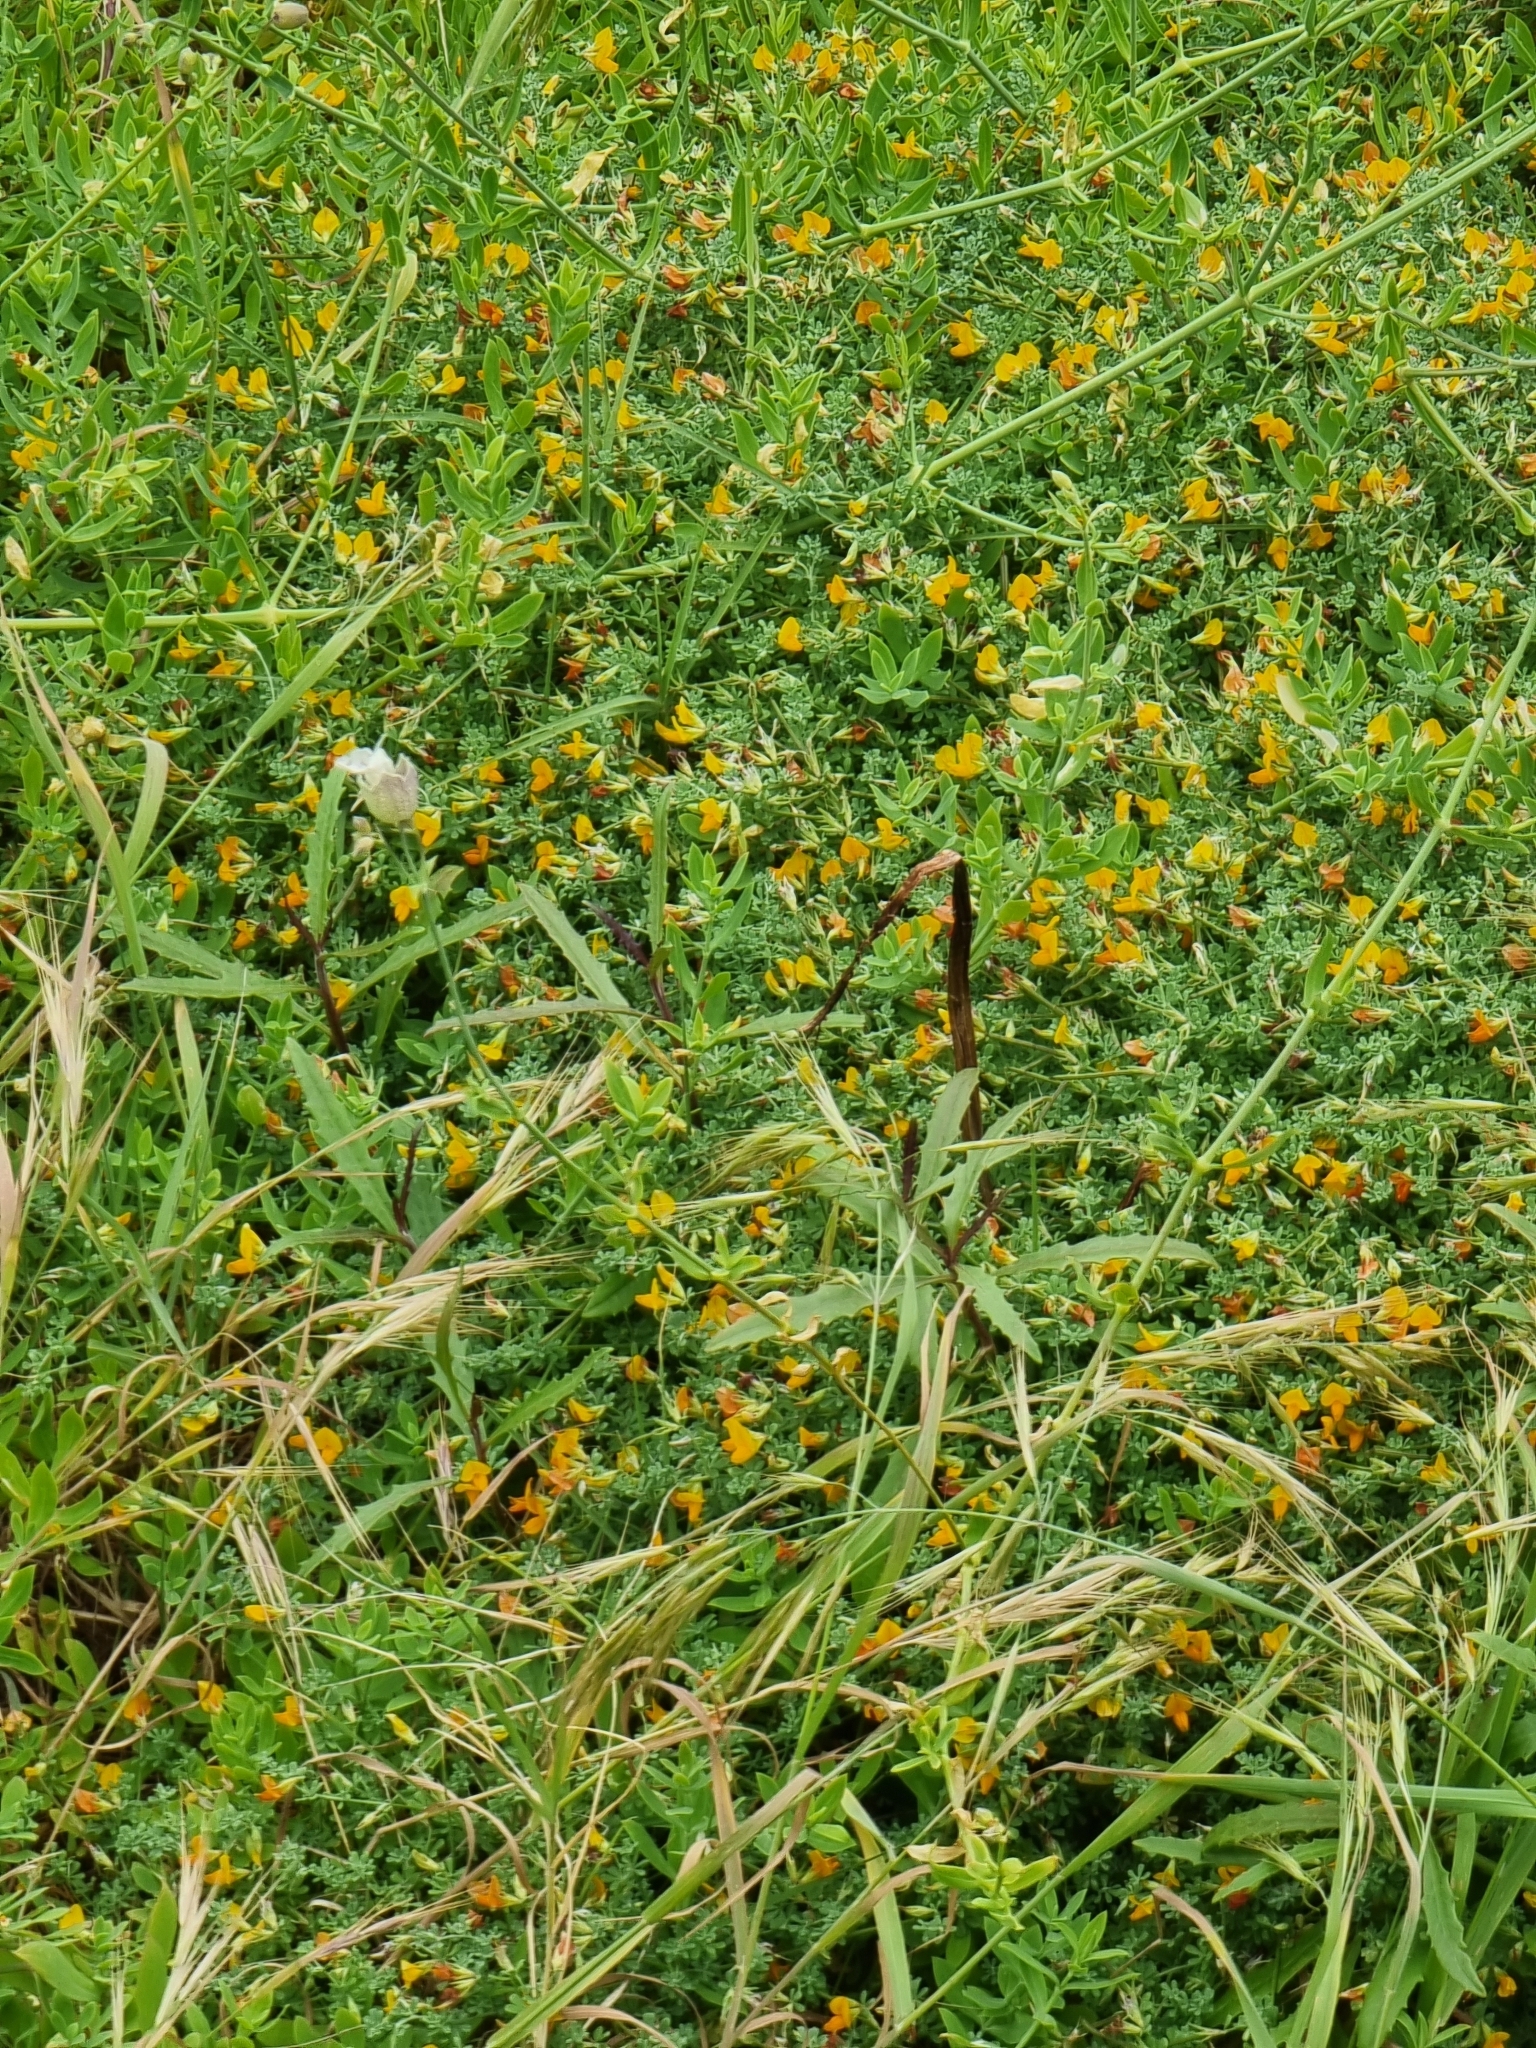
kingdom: Plantae
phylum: Tracheophyta
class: Magnoliopsida
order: Fabales
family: Fabaceae
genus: Lotus
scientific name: Lotus glaucus
